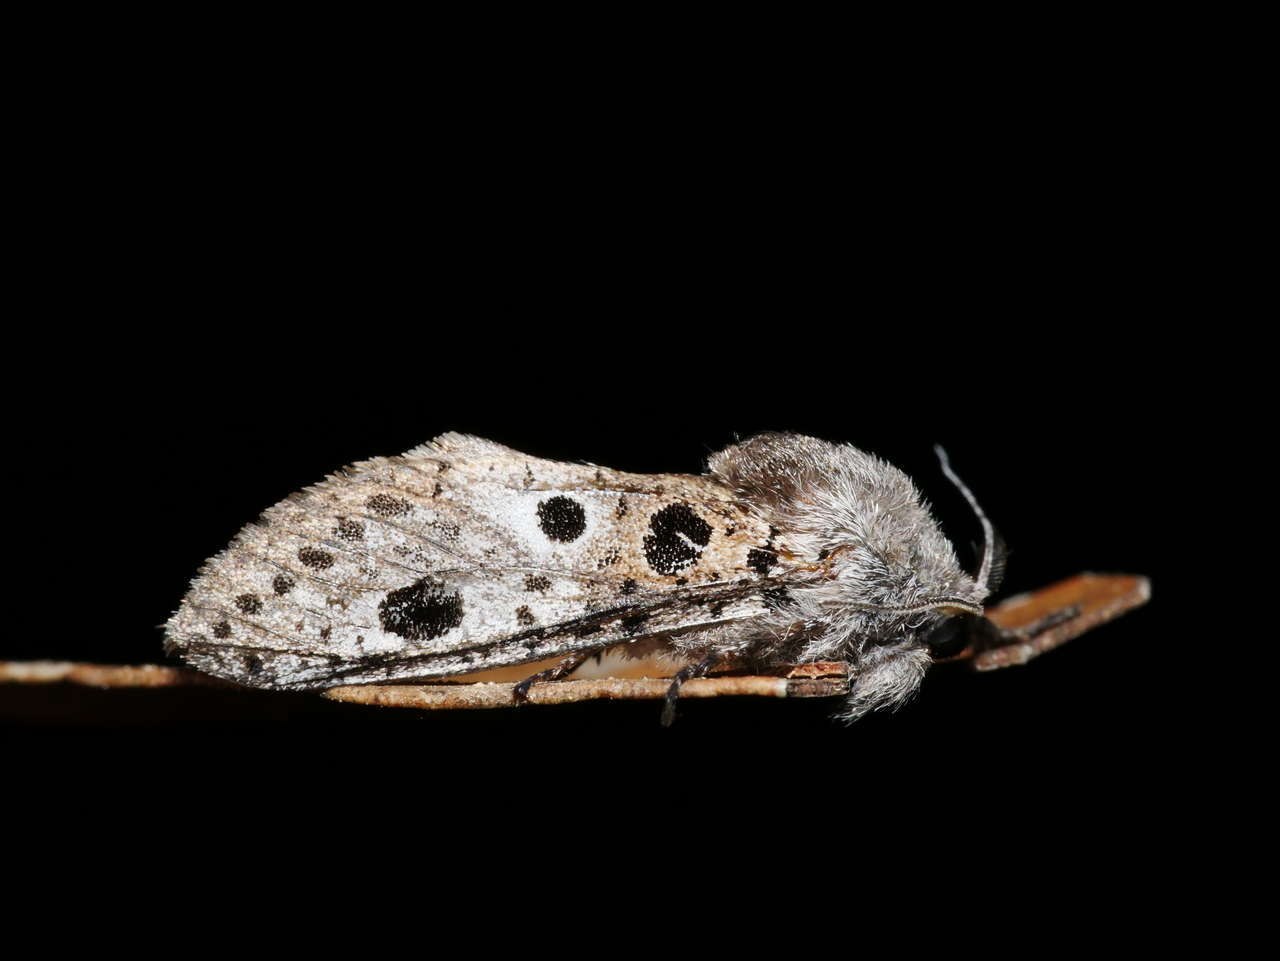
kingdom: Animalia
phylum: Arthropoda
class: Insecta
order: Lepidoptera
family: Cossidae
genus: Sympycnodes
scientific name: Sympycnodes dunnorum
